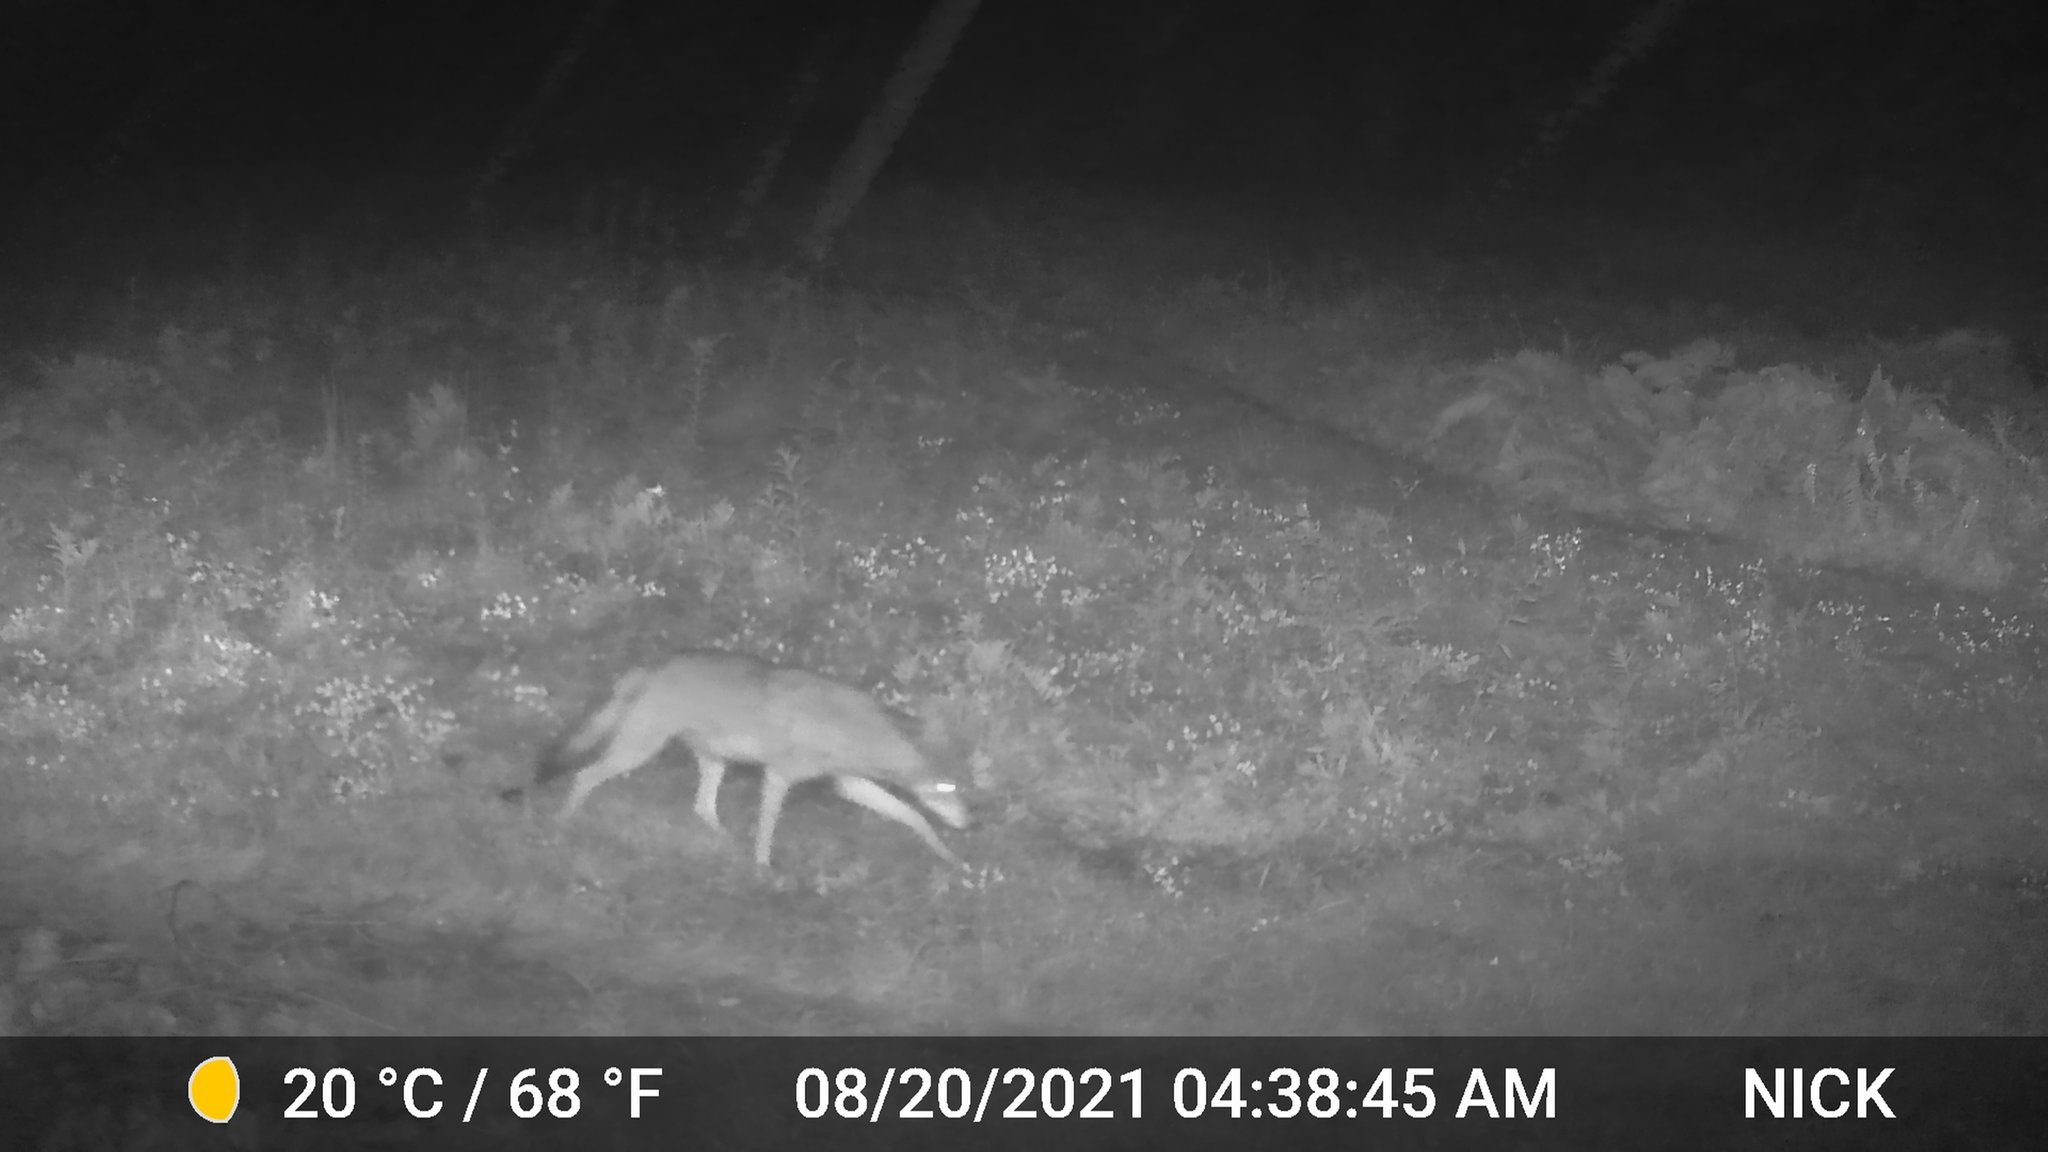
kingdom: Animalia
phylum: Chordata
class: Mammalia
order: Carnivora
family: Canidae
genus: Canis
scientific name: Canis latrans
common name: Coyote
